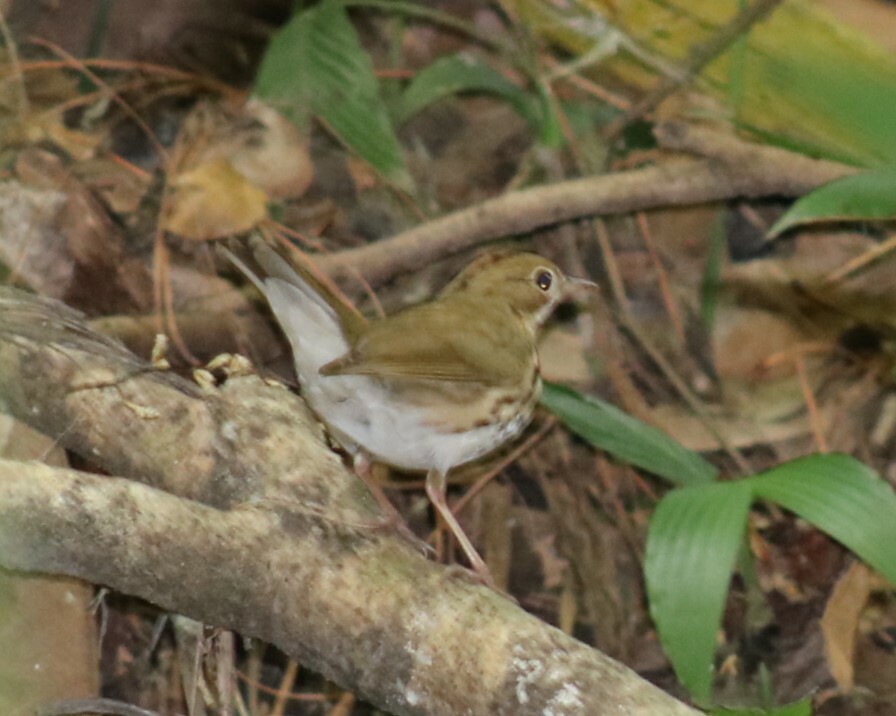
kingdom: Animalia
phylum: Chordata
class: Aves
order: Passeriformes
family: Parulidae
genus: Seiurus
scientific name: Seiurus aurocapilla
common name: Ovenbird
